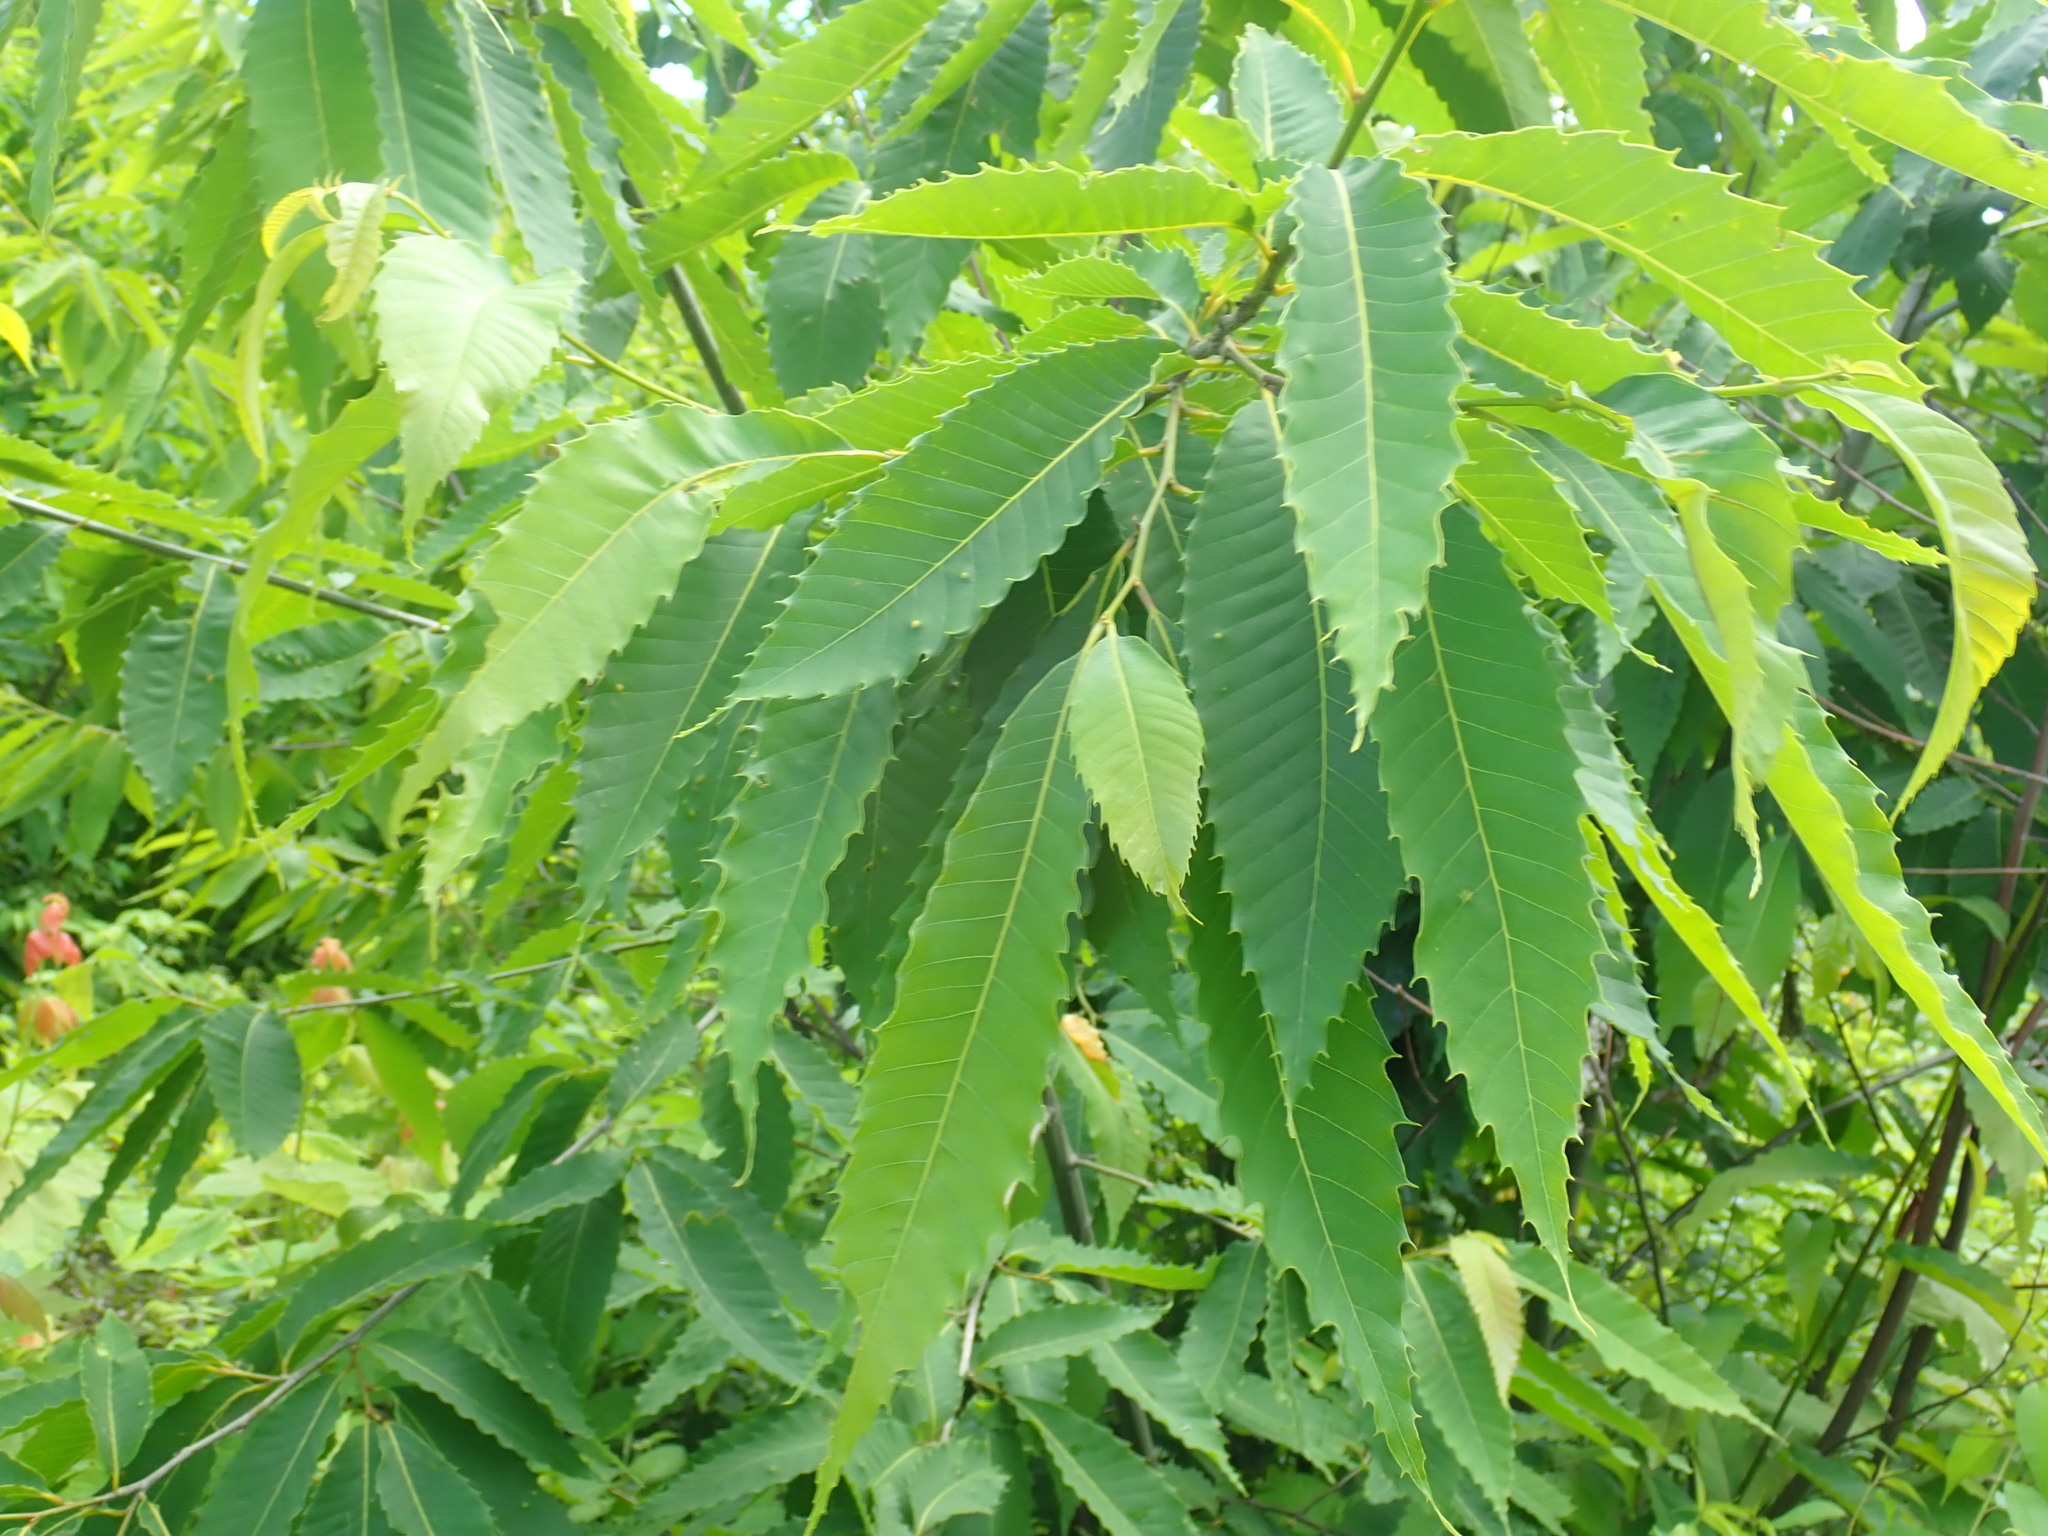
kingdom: Plantae
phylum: Tracheophyta
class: Magnoliopsida
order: Fagales
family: Fagaceae
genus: Castanea
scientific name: Castanea dentata
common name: American chestnut
